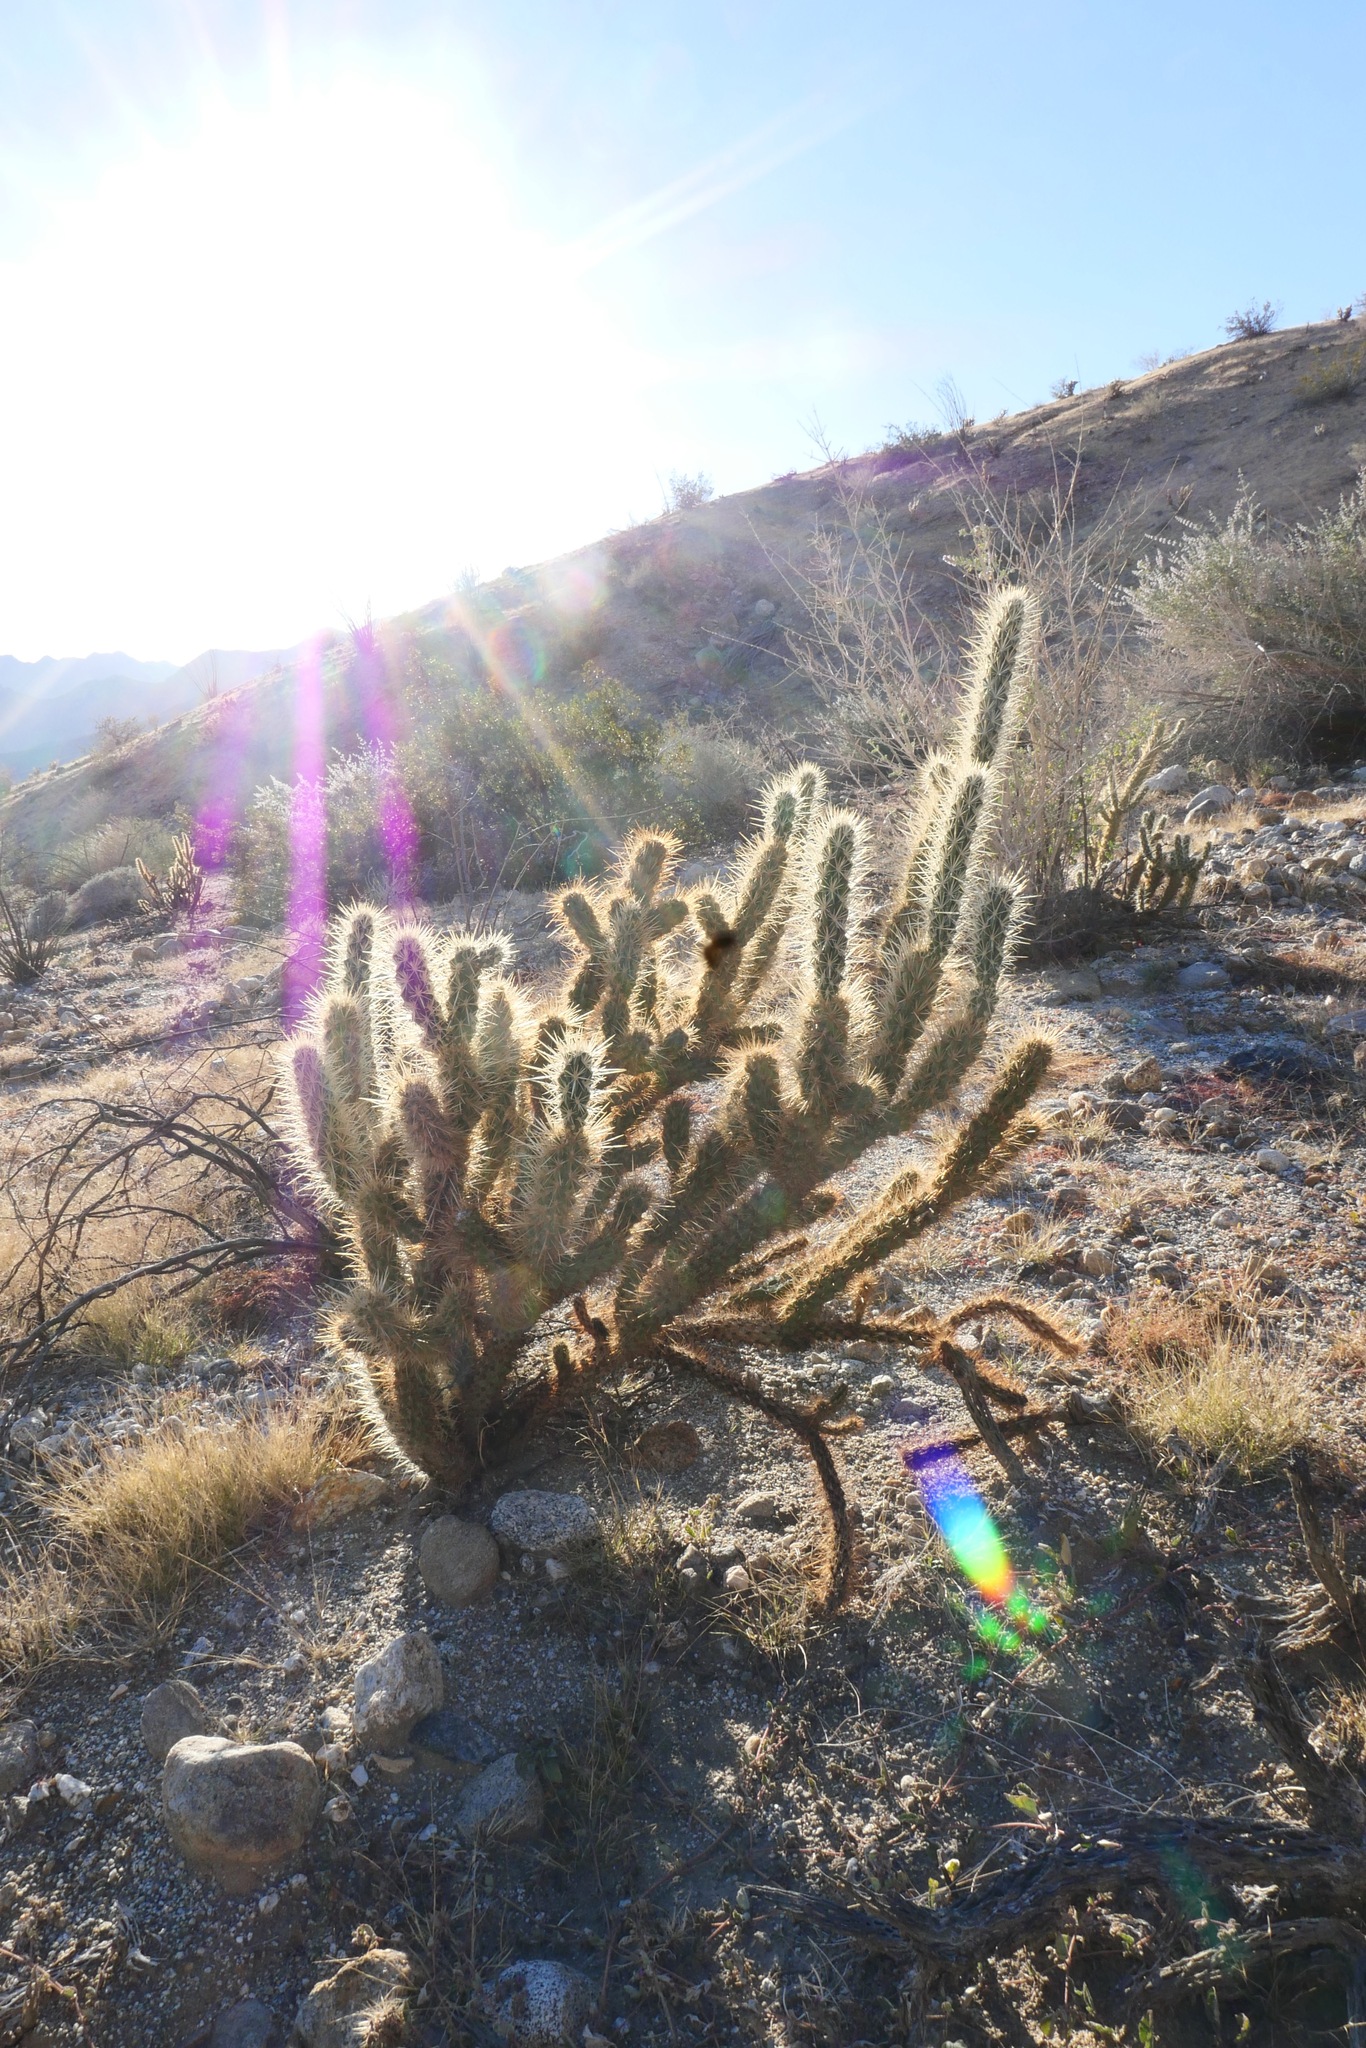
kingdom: Plantae
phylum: Tracheophyta
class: Magnoliopsida
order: Caryophyllales
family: Cactaceae
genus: Cylindropuntia
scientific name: Cylindropuntia ganderi
